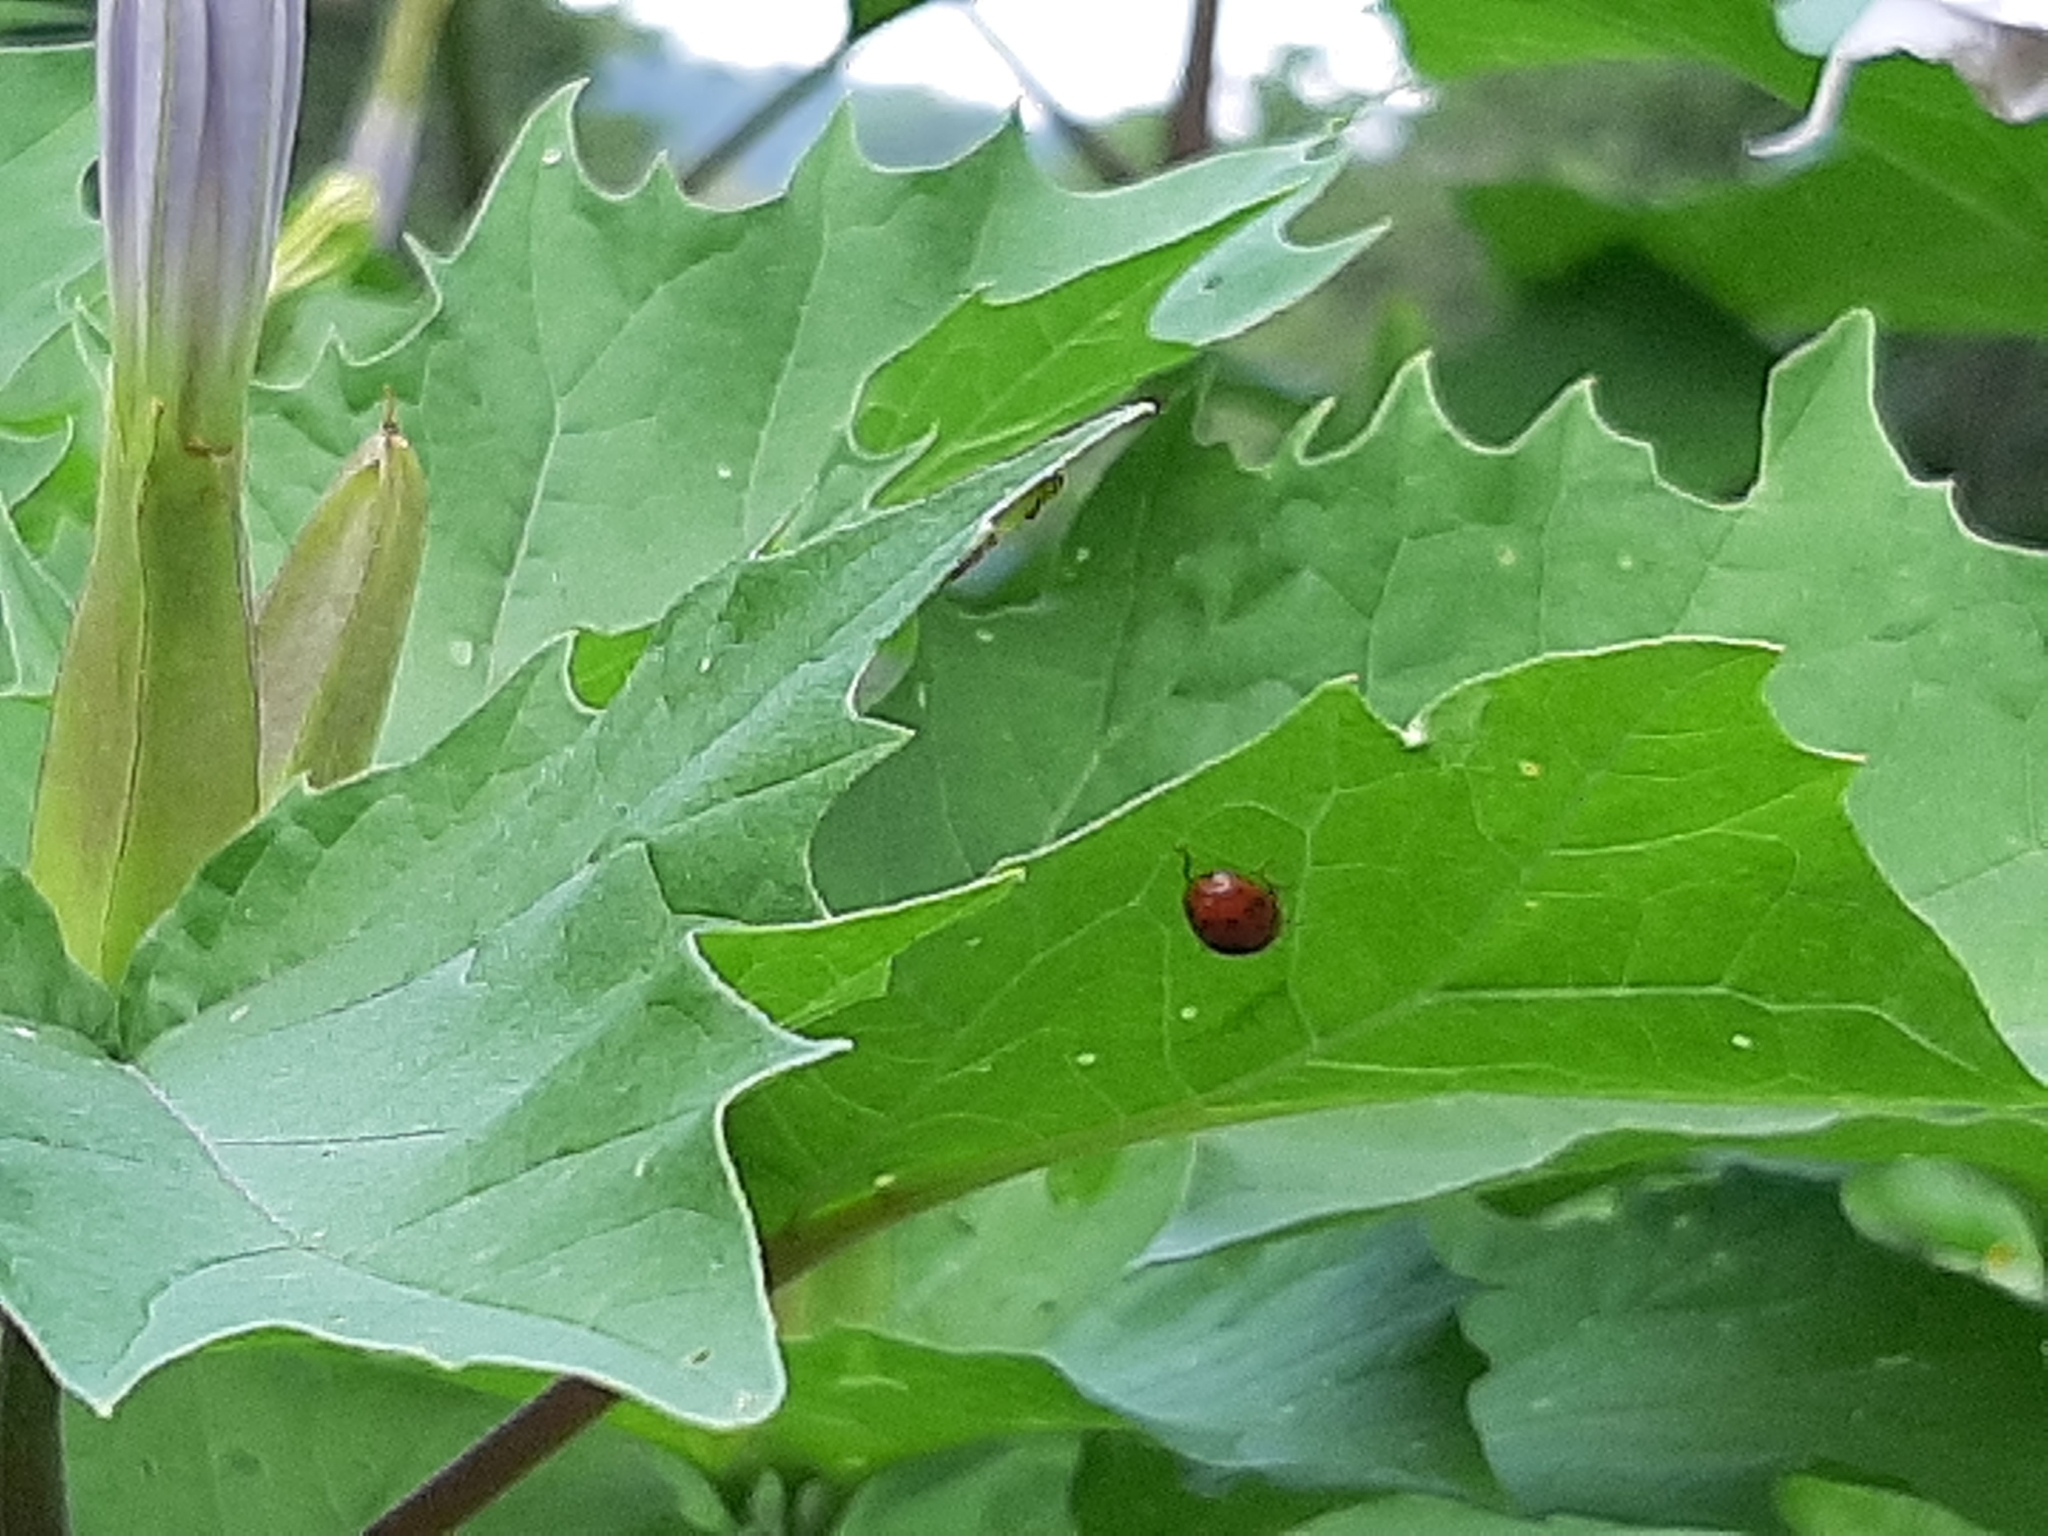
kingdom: Animalia
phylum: Arthropoda
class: Insecta
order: Coleoptera
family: Coccinellidae
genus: Harmonia
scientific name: Harmonia axyridis
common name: Harlequin ladybird
